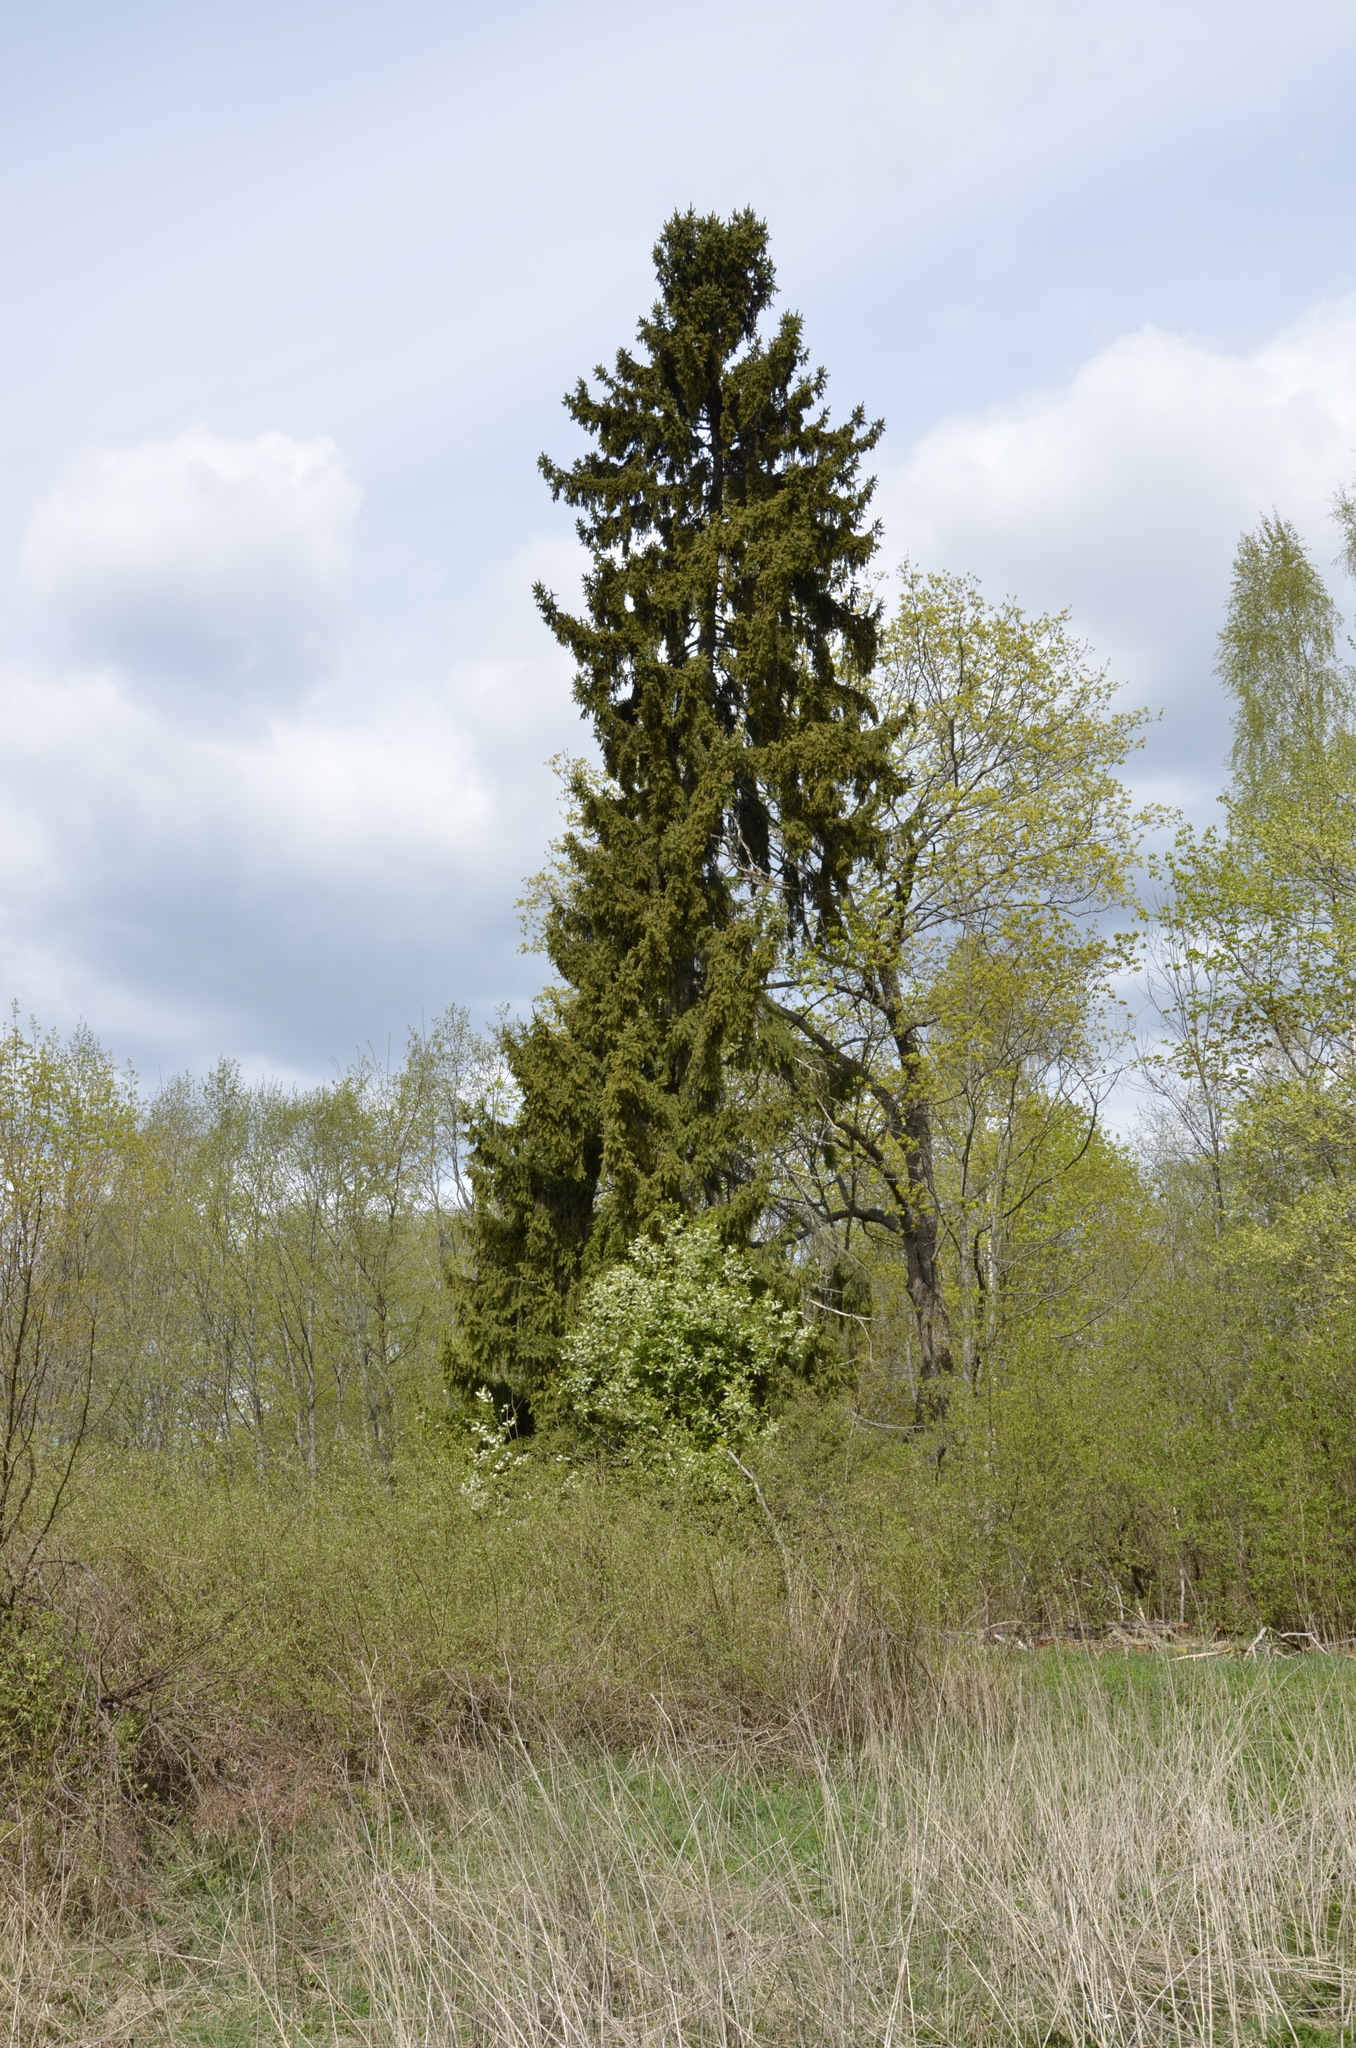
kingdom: Plantae
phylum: Tracheophyta
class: Pinopsida
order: Pinales
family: Pinaceae
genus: Picea
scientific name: Picea abies
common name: Norway spruce
